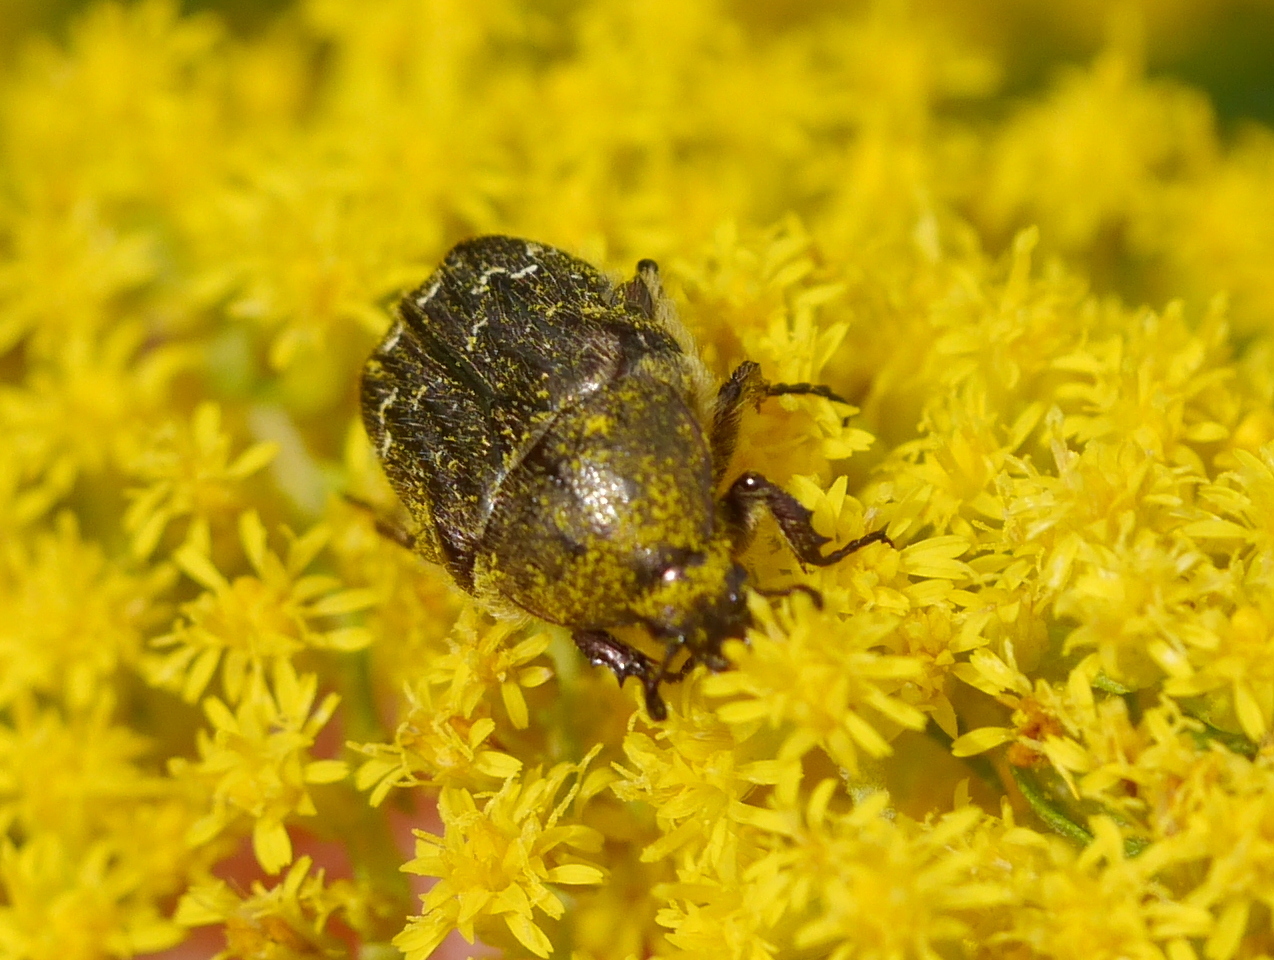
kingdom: Animalia
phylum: Arthropoda
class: Insecta
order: Coleoptera
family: Scarabaeidae
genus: Euphoria
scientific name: Euphoria sepulcralis
